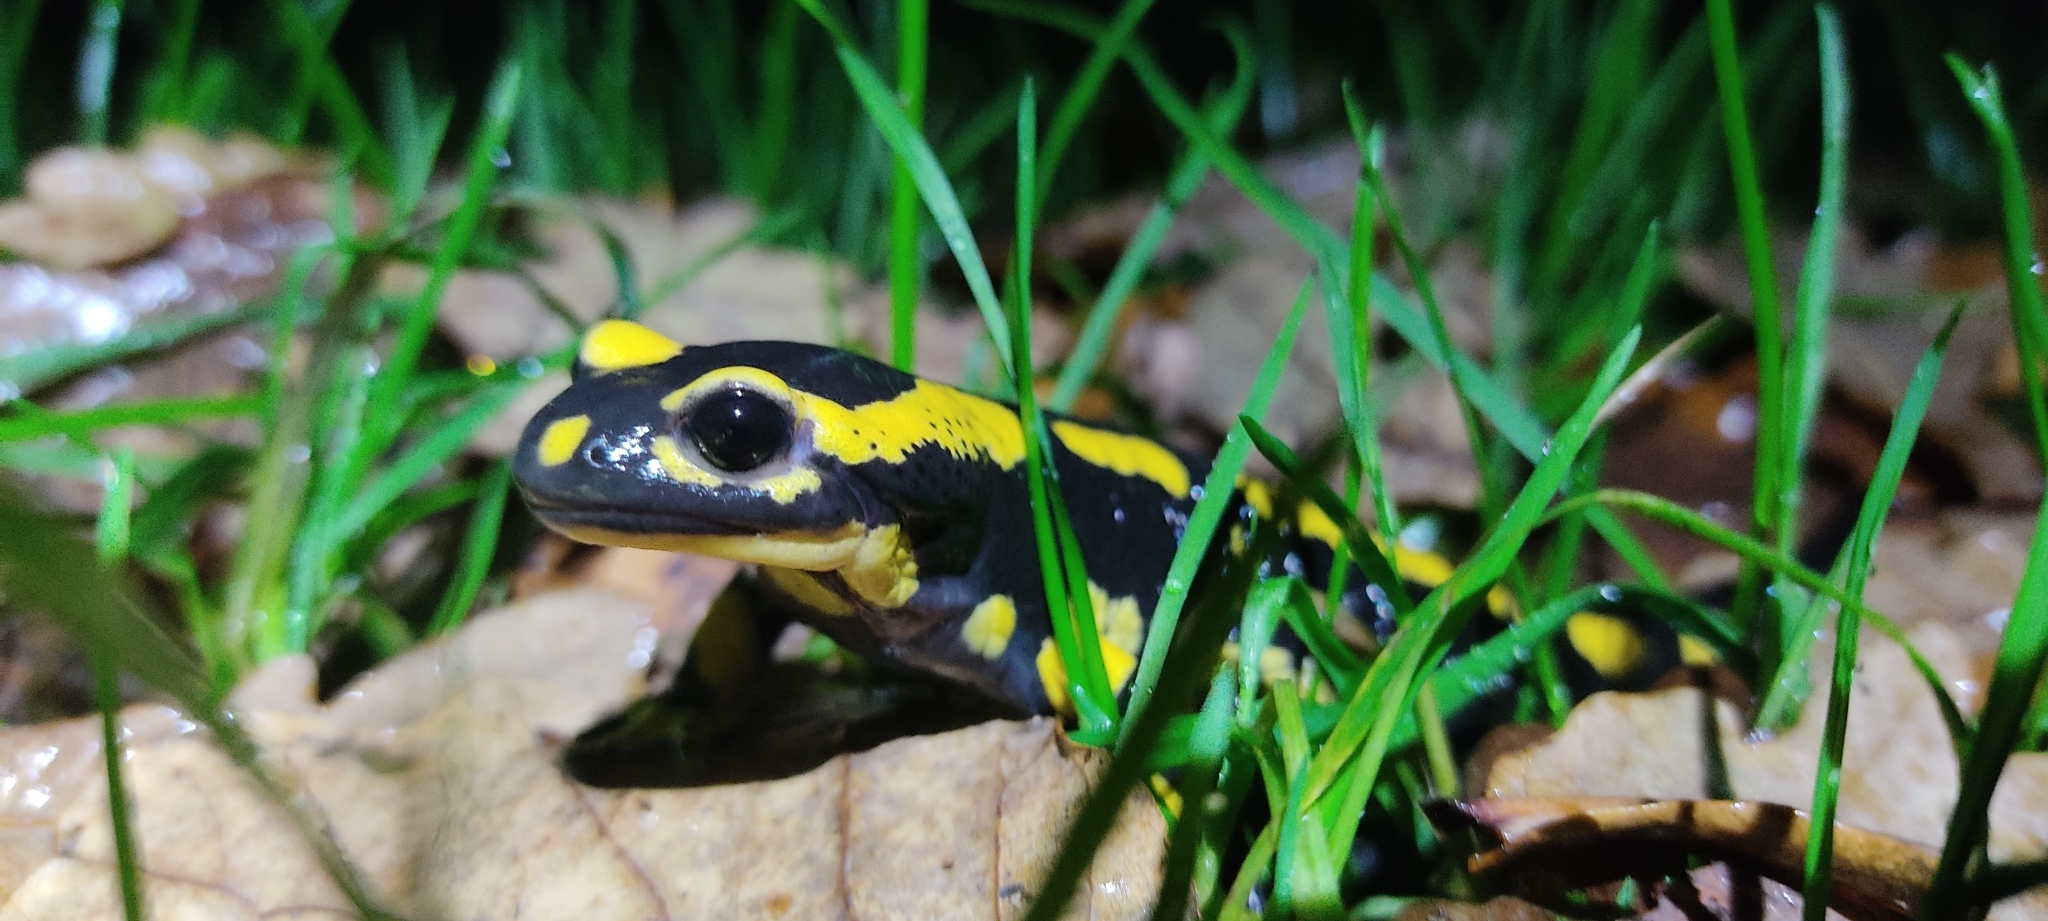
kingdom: Animalia
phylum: Chordata
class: Amphibia
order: Caudata
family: Salamandridae
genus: Salamandra
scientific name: Salamandra salamandra
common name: Fire salamander
